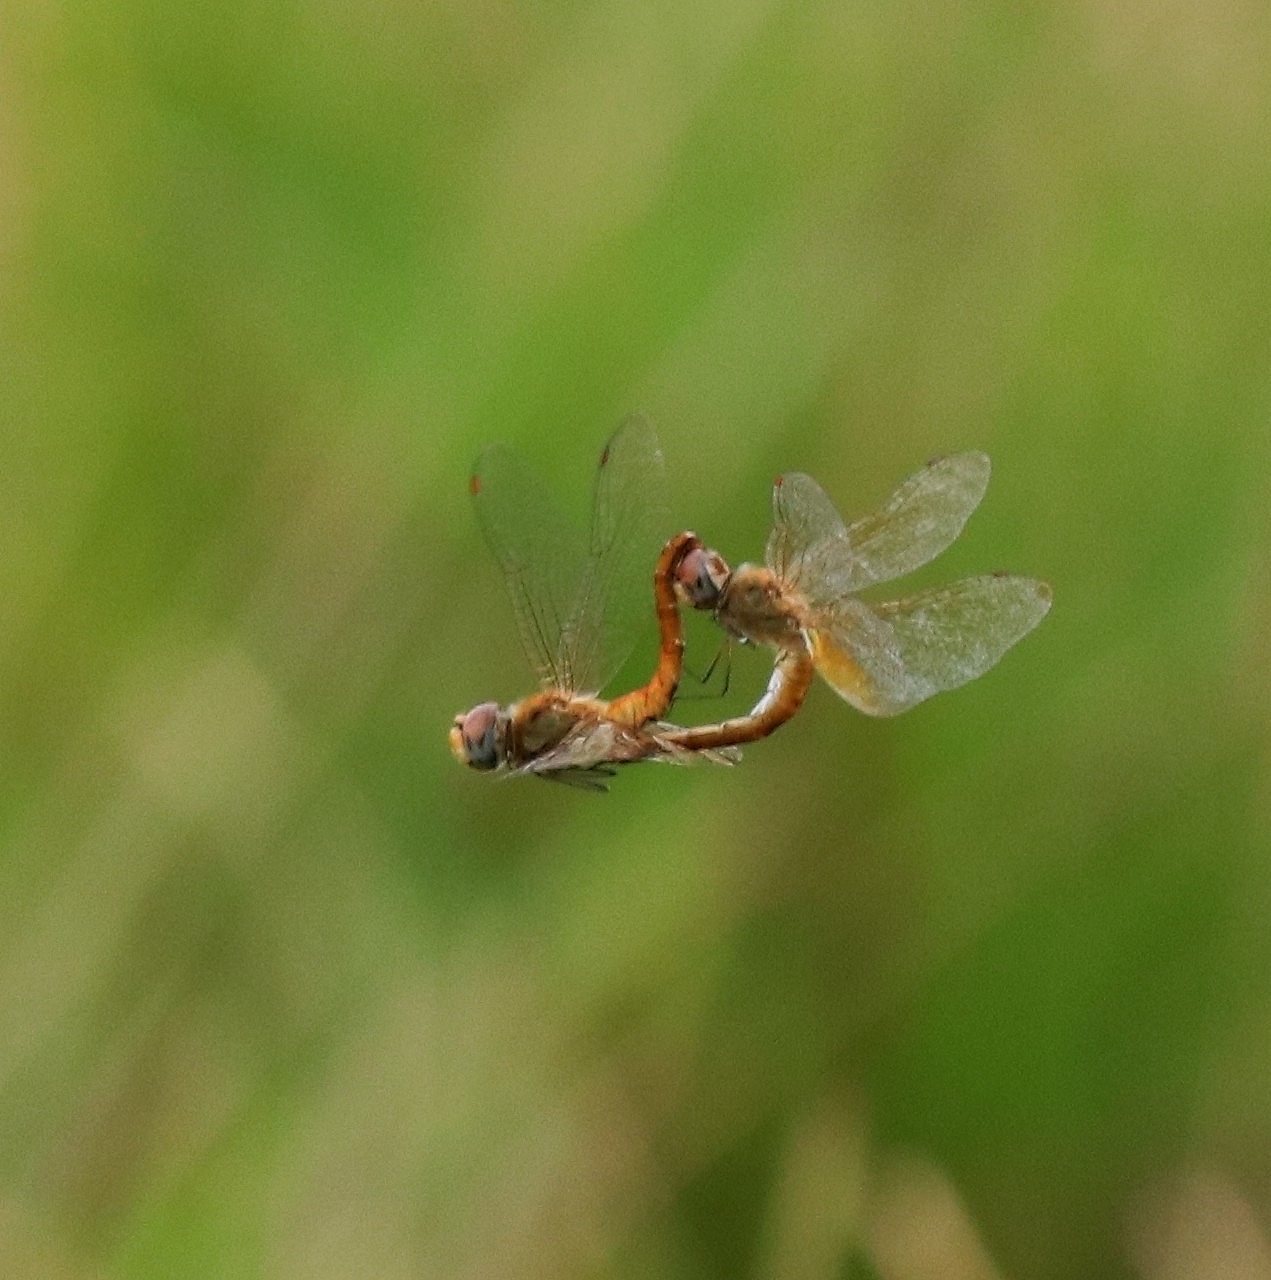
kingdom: Animalia
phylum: Arthropoda
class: Insecta
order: Odonata
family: Libellulidae
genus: Pantala
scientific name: Pantala flavescens
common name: Wandering glider
